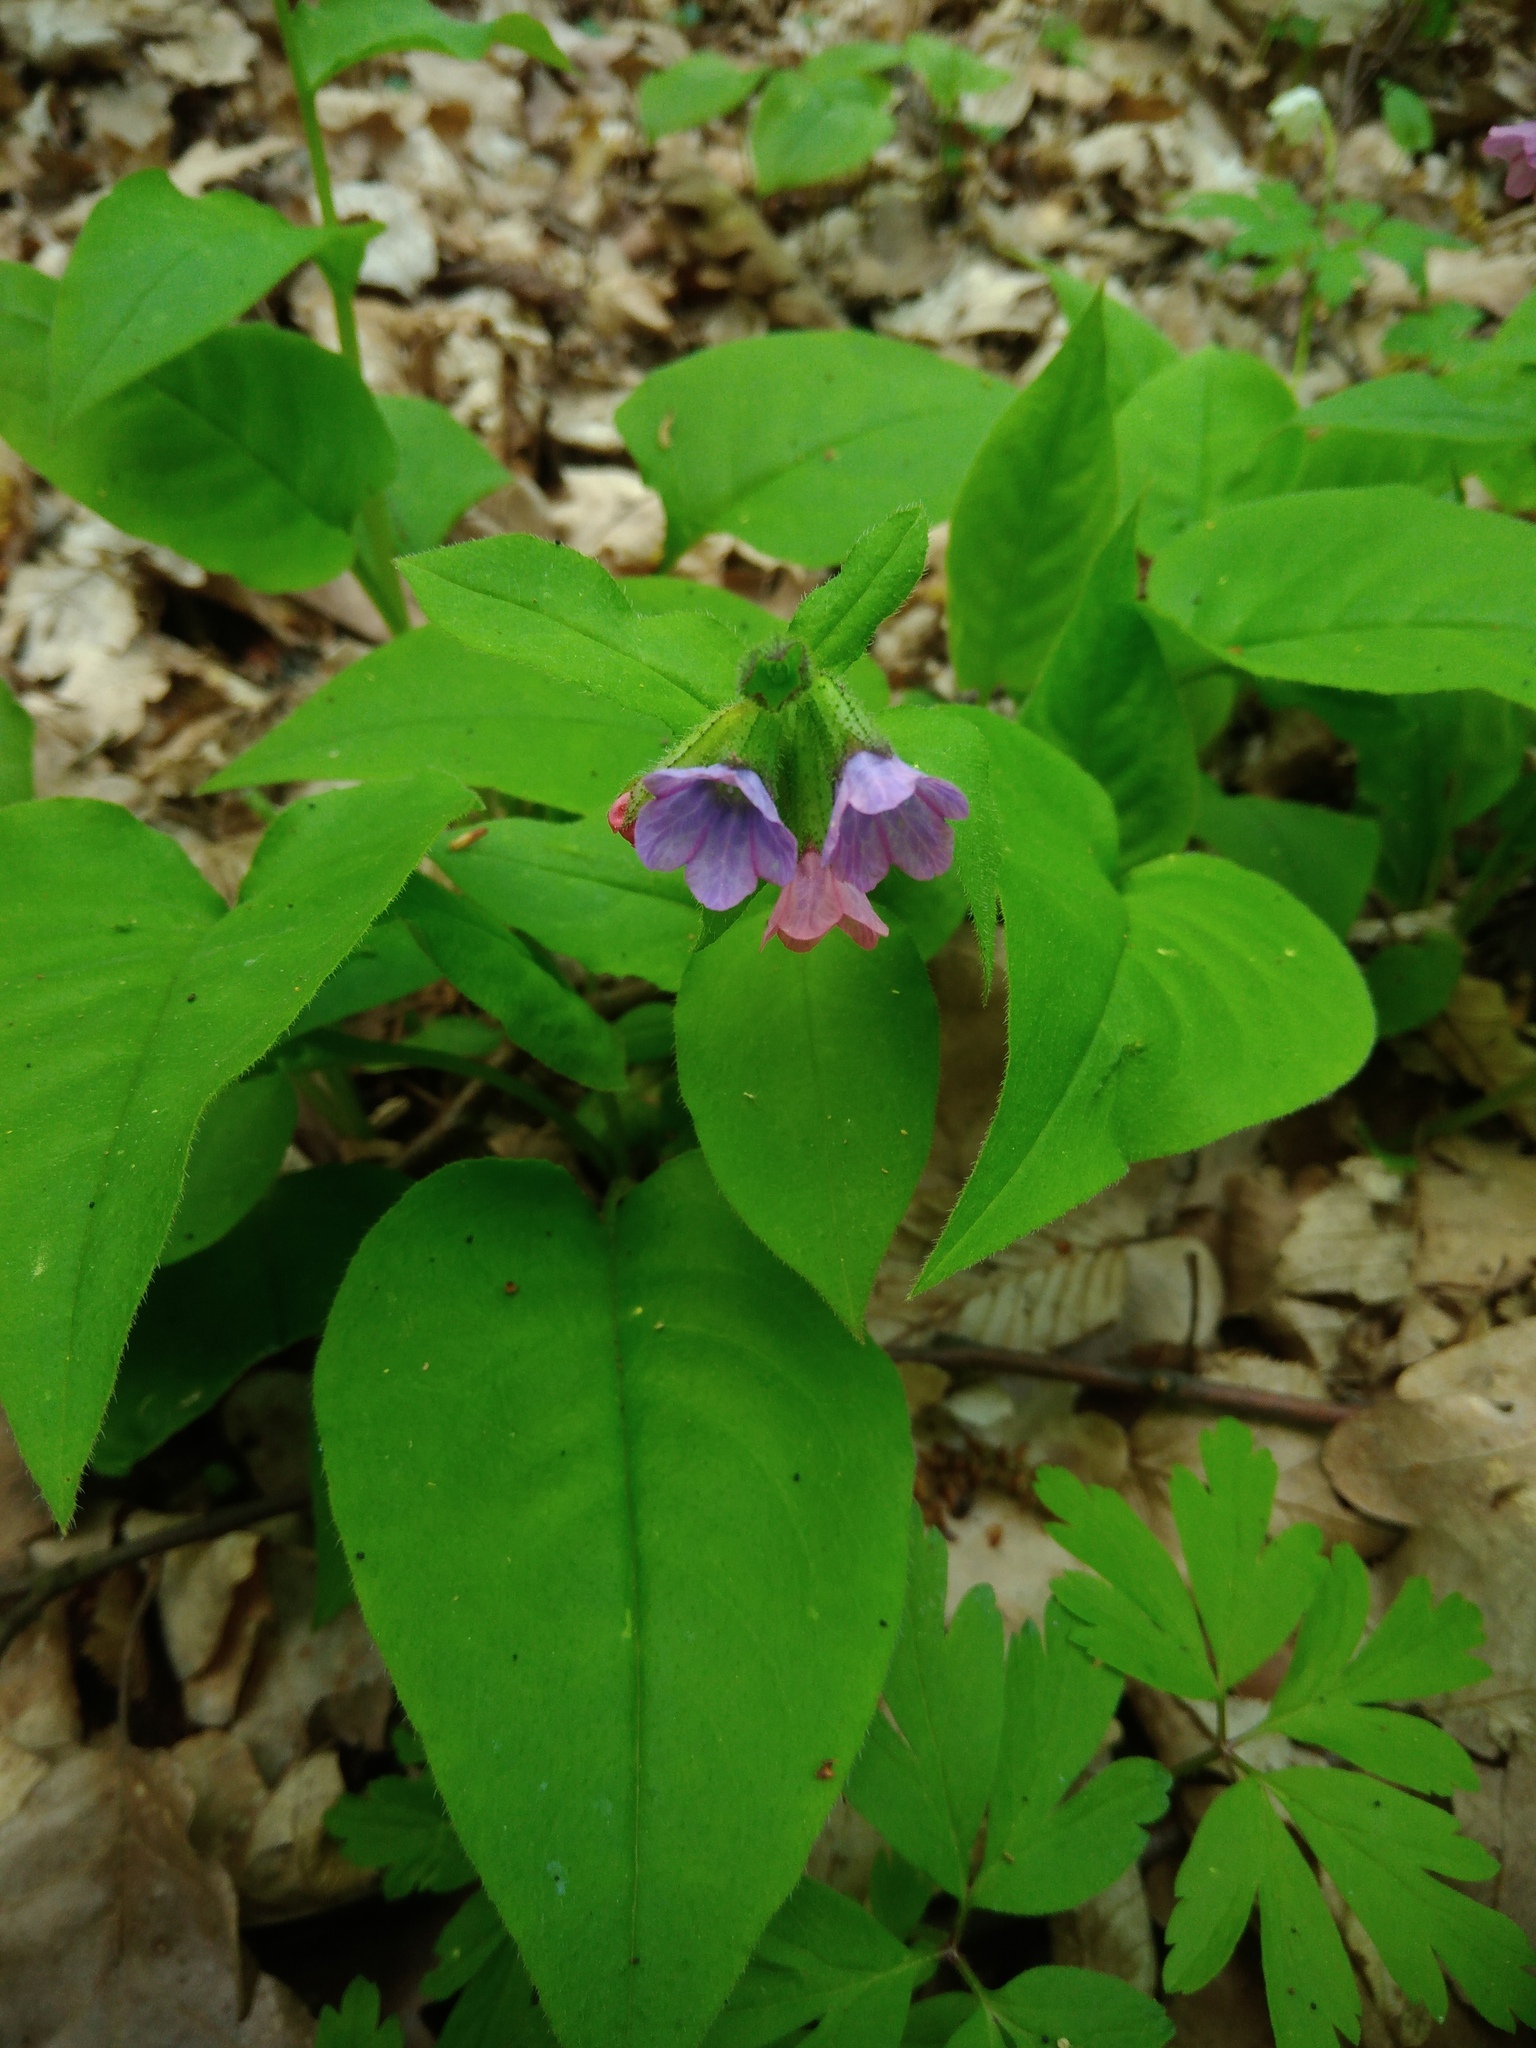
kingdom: Plantae
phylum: Tracheophyta
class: Magnoliopsida
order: Boraginales
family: Boraginaceae
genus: Pulmonaria
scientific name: Pulmonaria obscura
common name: Suffolk lungwort
